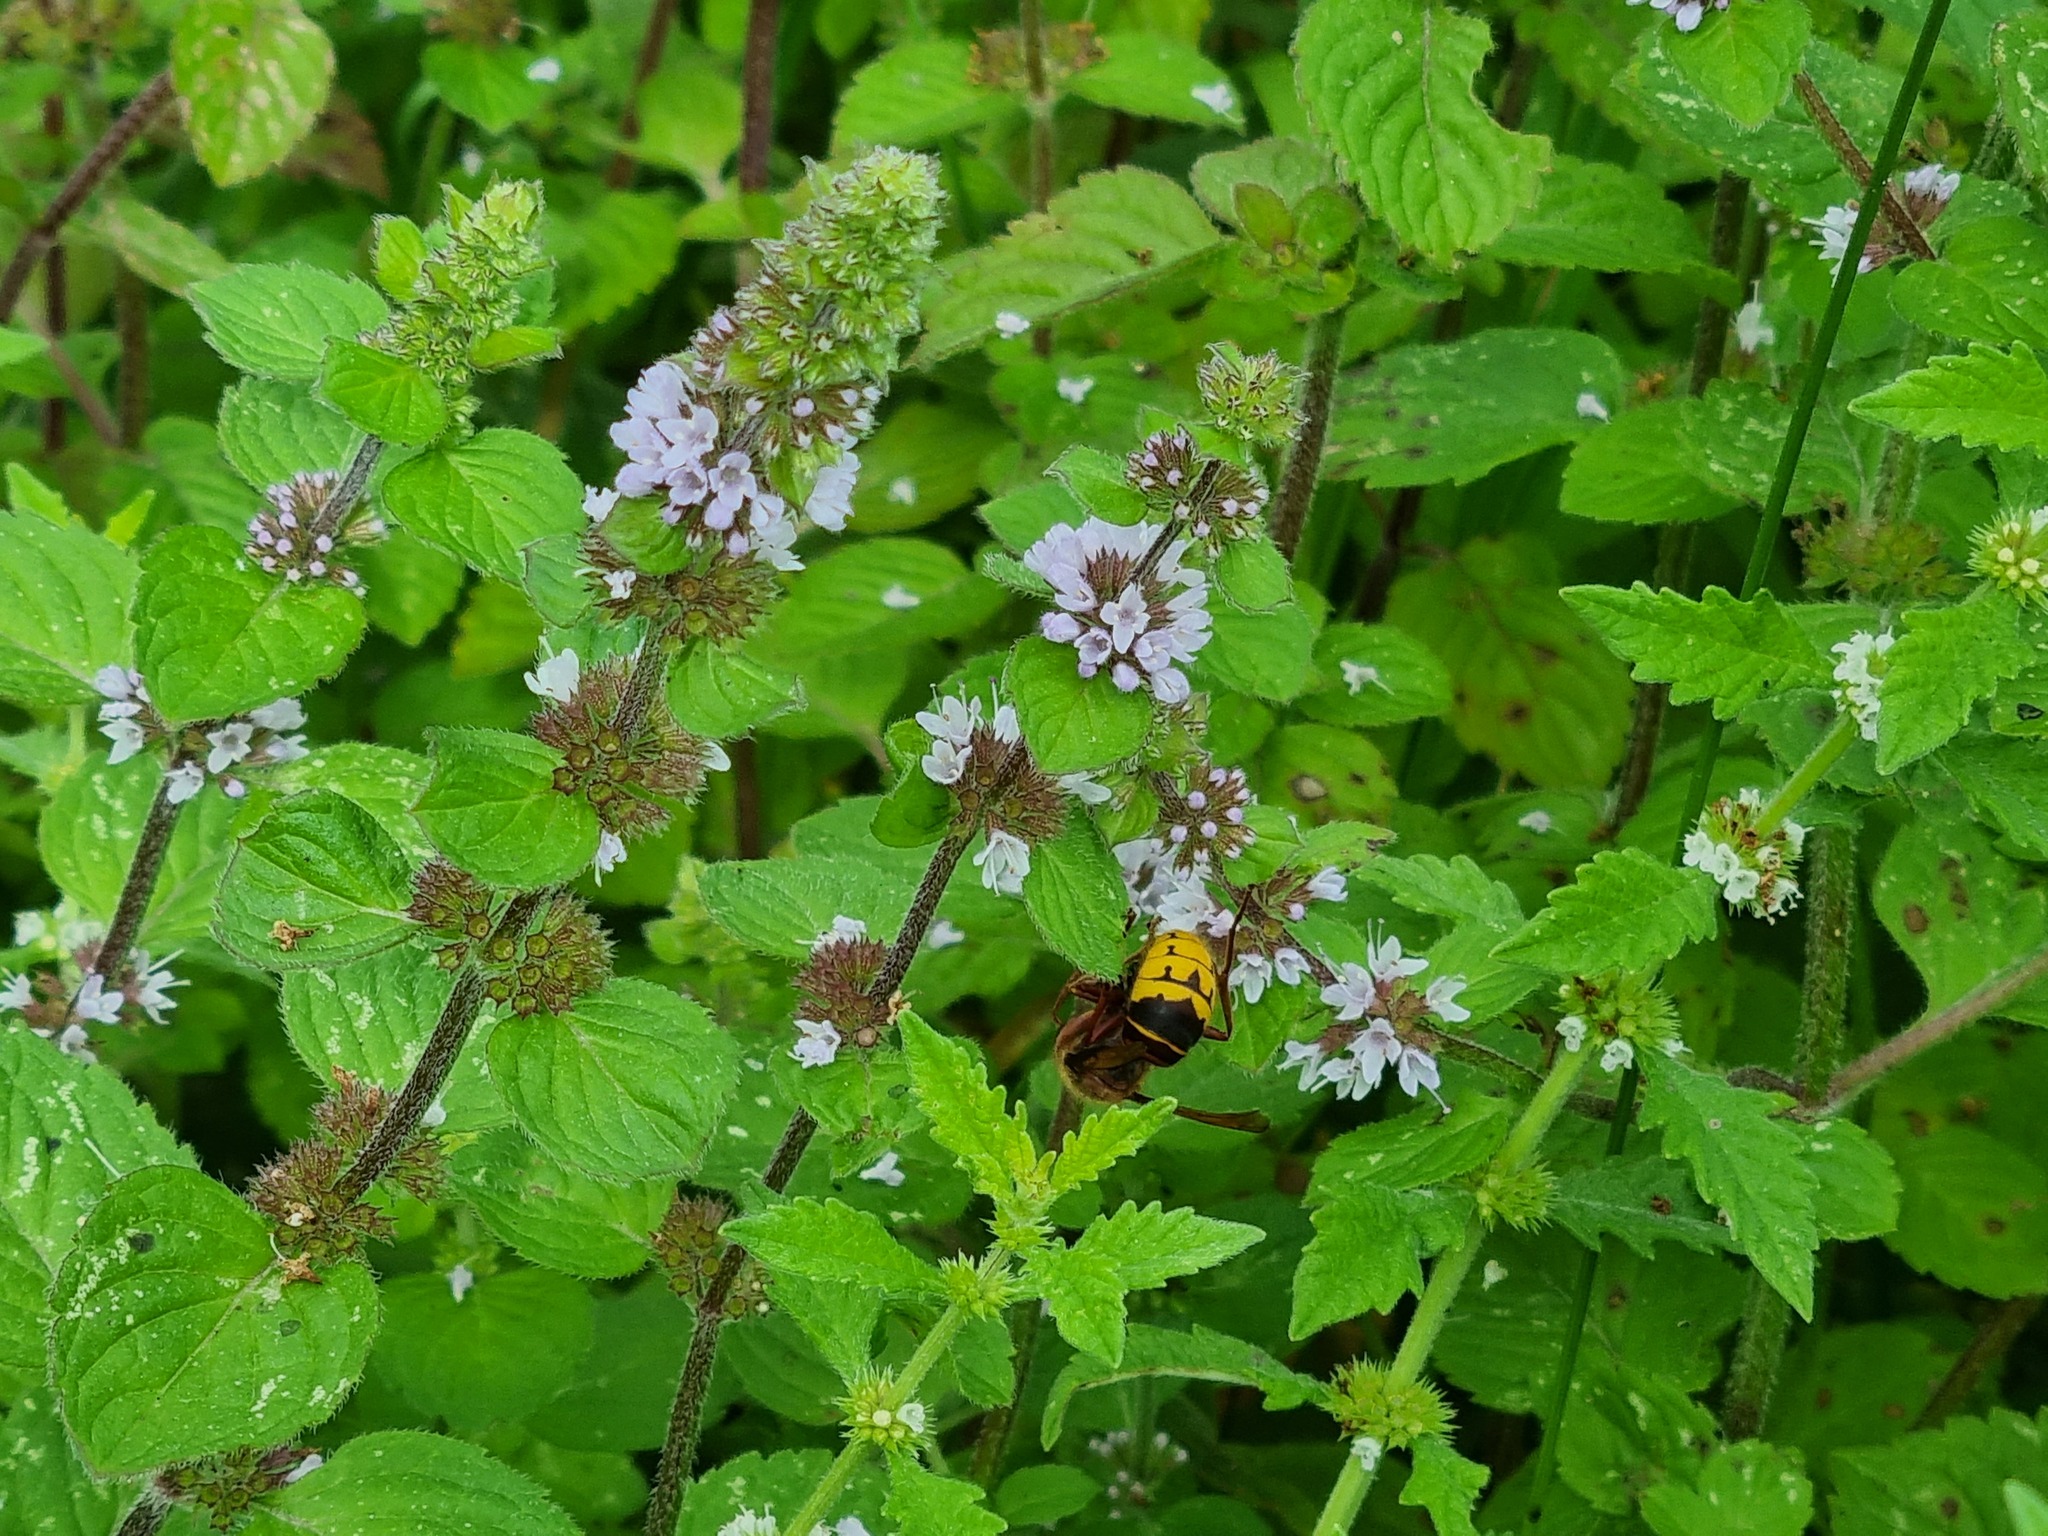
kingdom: Animalia
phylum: Arthropoda
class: Insecta
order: Hymenoptera
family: Vespidae
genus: Vespa
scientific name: Vespa crabro
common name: Hornet
